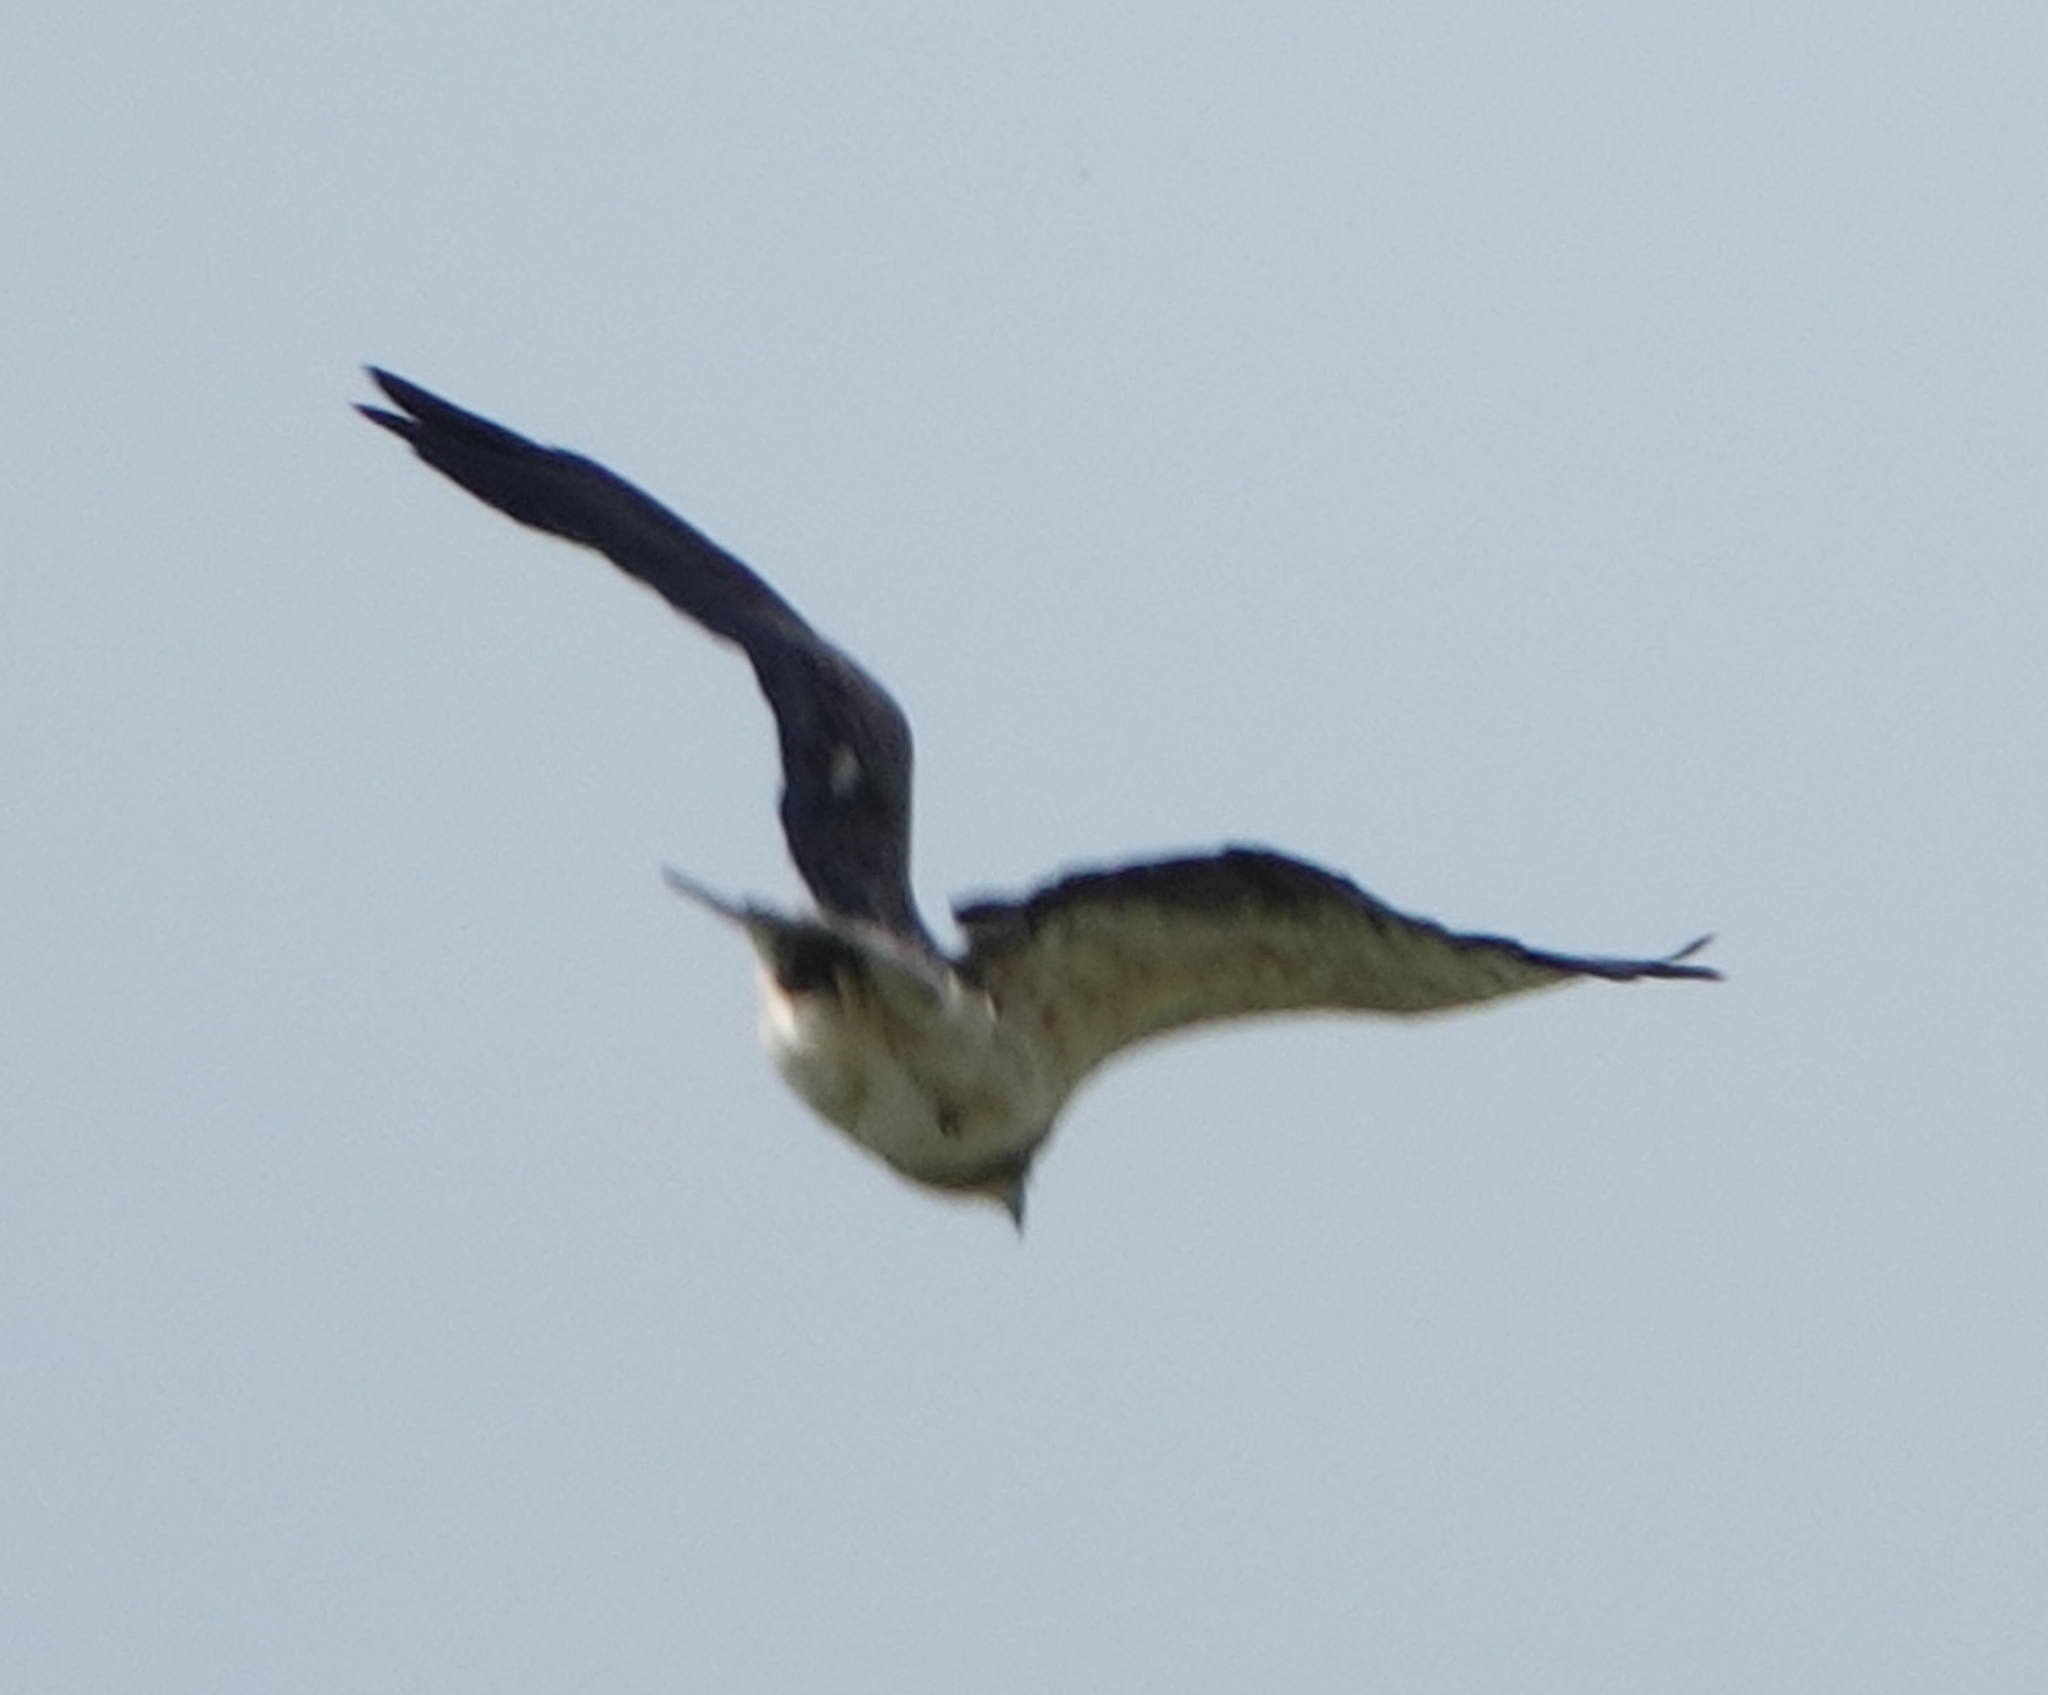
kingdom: Animalia
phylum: Chordata
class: Aves
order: Accipitriformes
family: Accipitridae
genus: Buteo
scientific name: Buteo swainsoni
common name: Swainson's hawk
